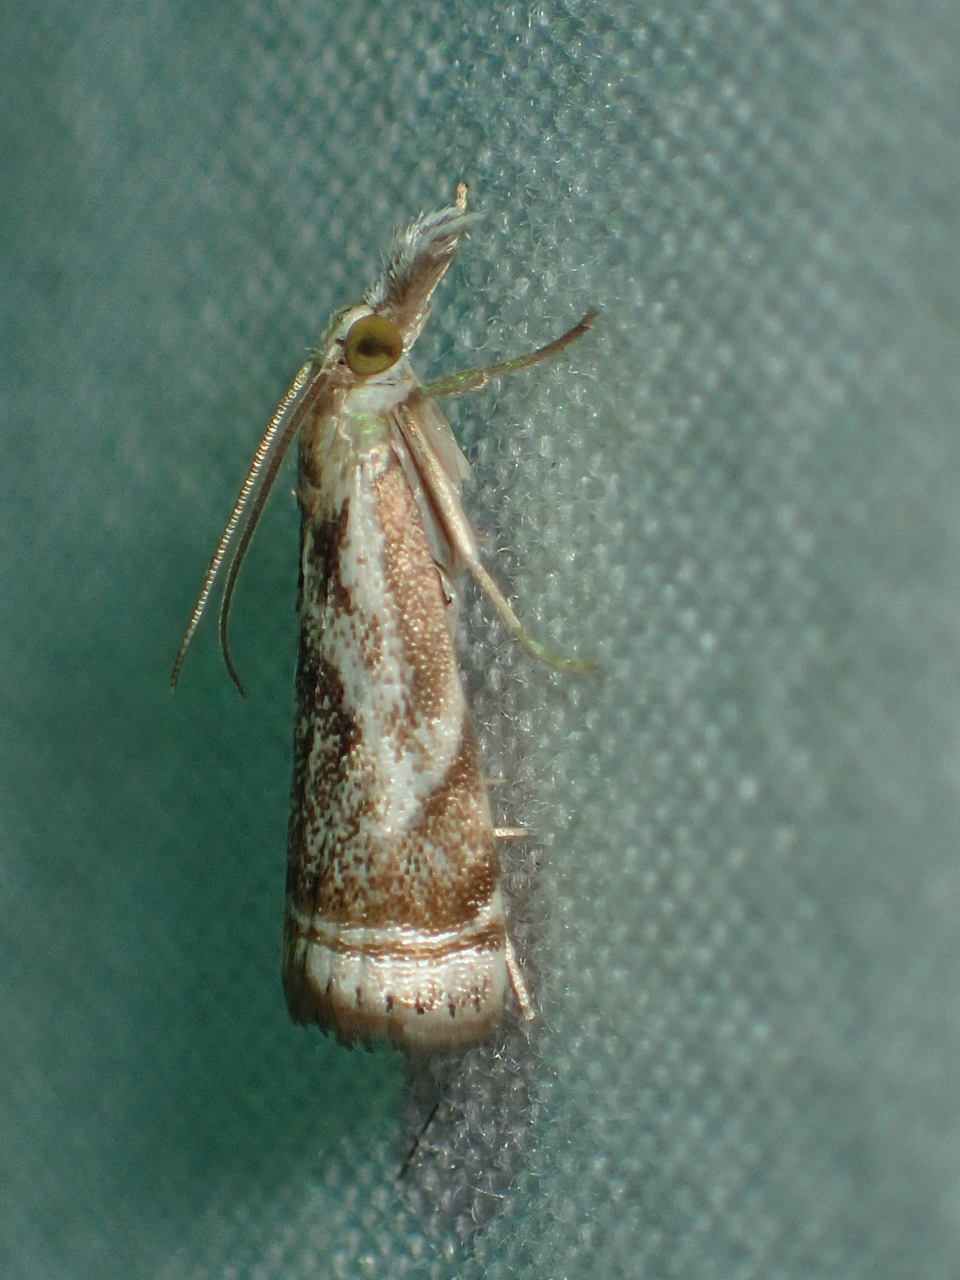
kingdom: Animalia
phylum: Arthropoda
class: Insecta
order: Lepidoptera
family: Crambidae
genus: Microcrambus
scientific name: Microcrambus elegans
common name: Elegant grass-veneer
